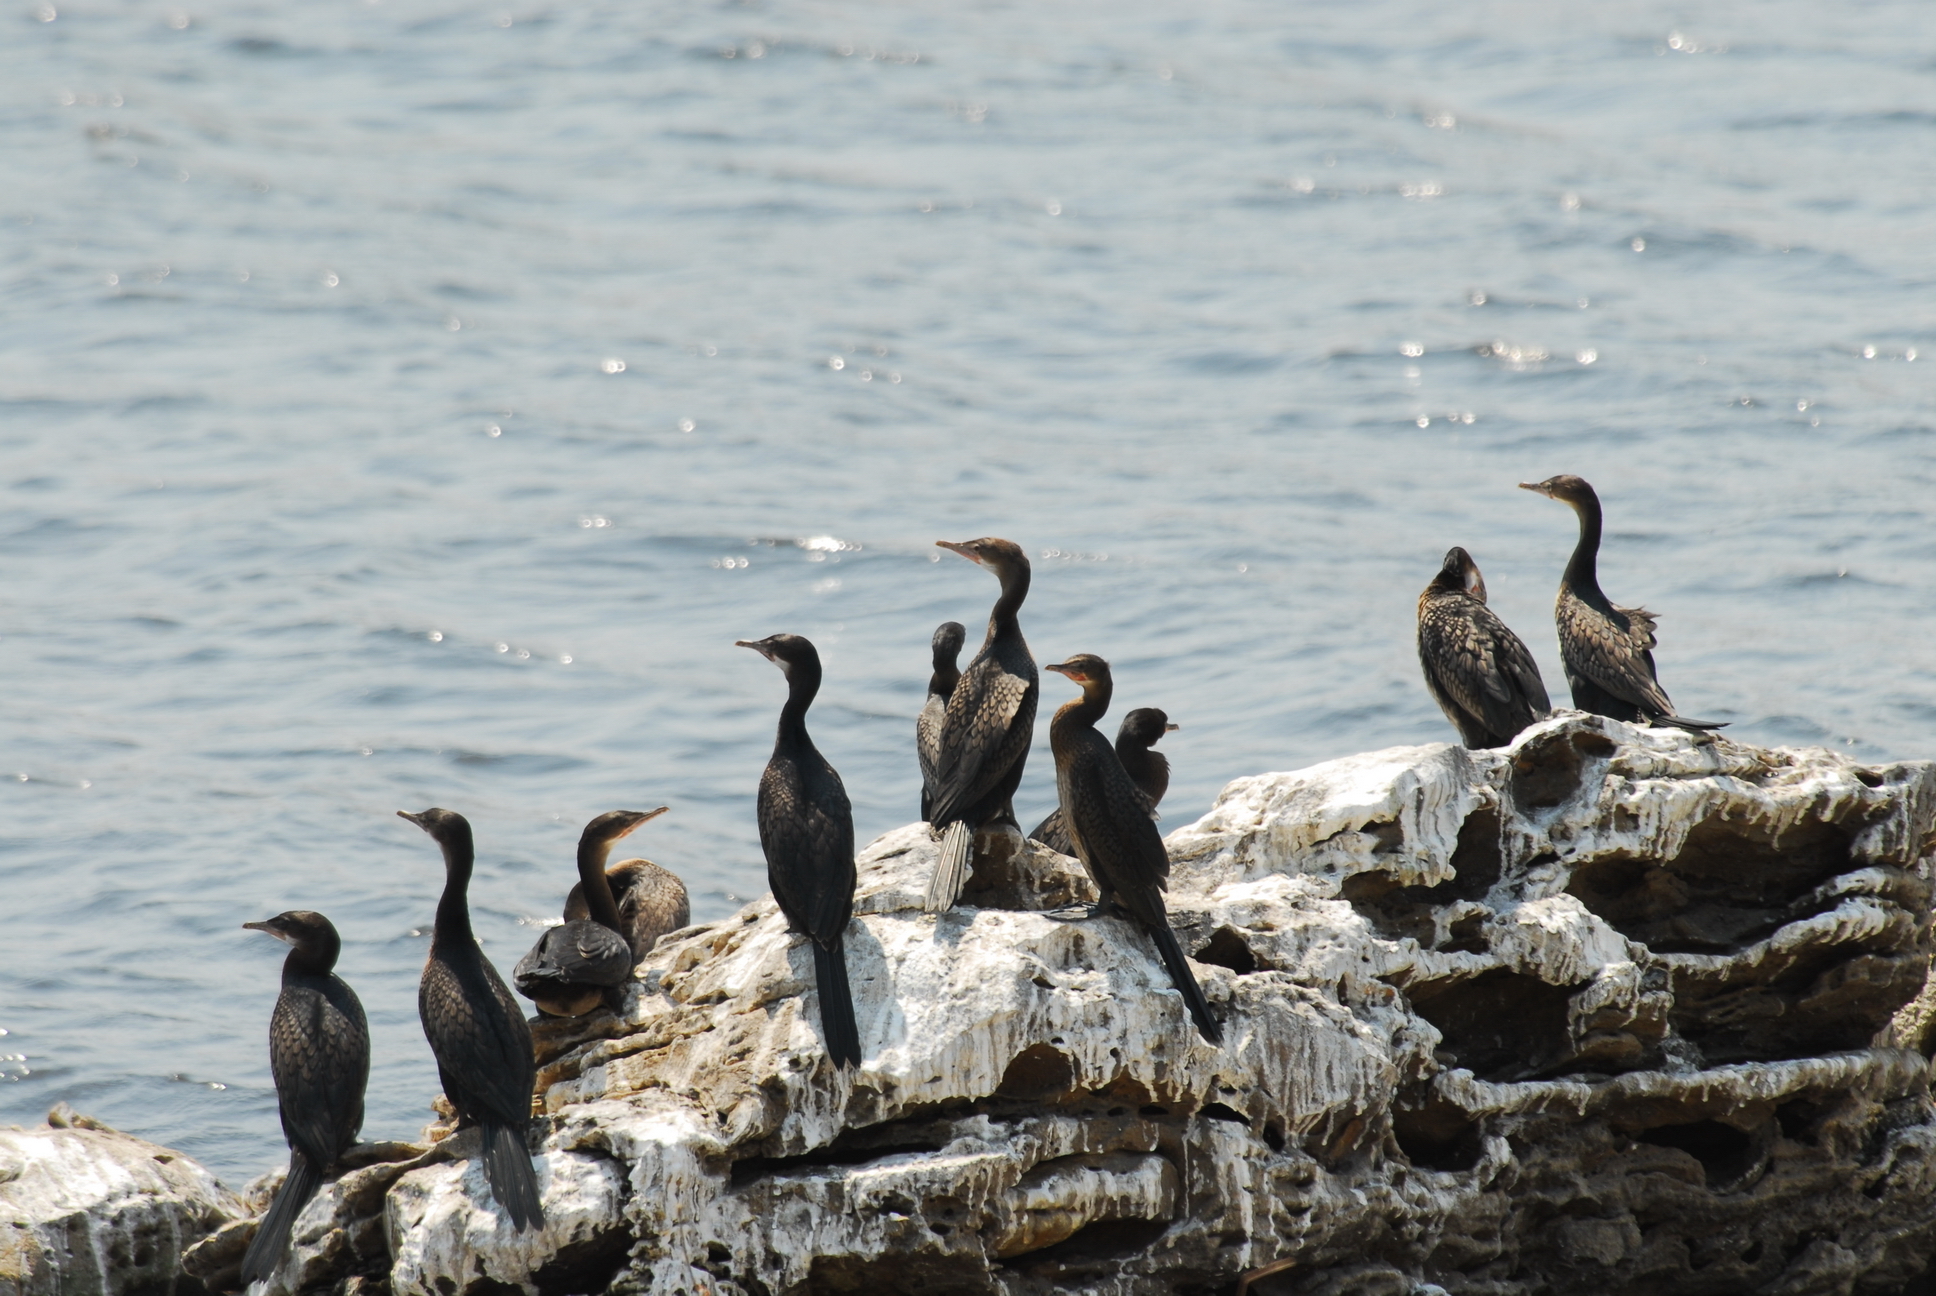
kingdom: Animalia
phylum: Chordata
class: Aves
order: Suliformes
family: Phalacrocoracidae
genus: Microcarbo
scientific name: Microcarbo africanus
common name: Long-tailed cormorant
